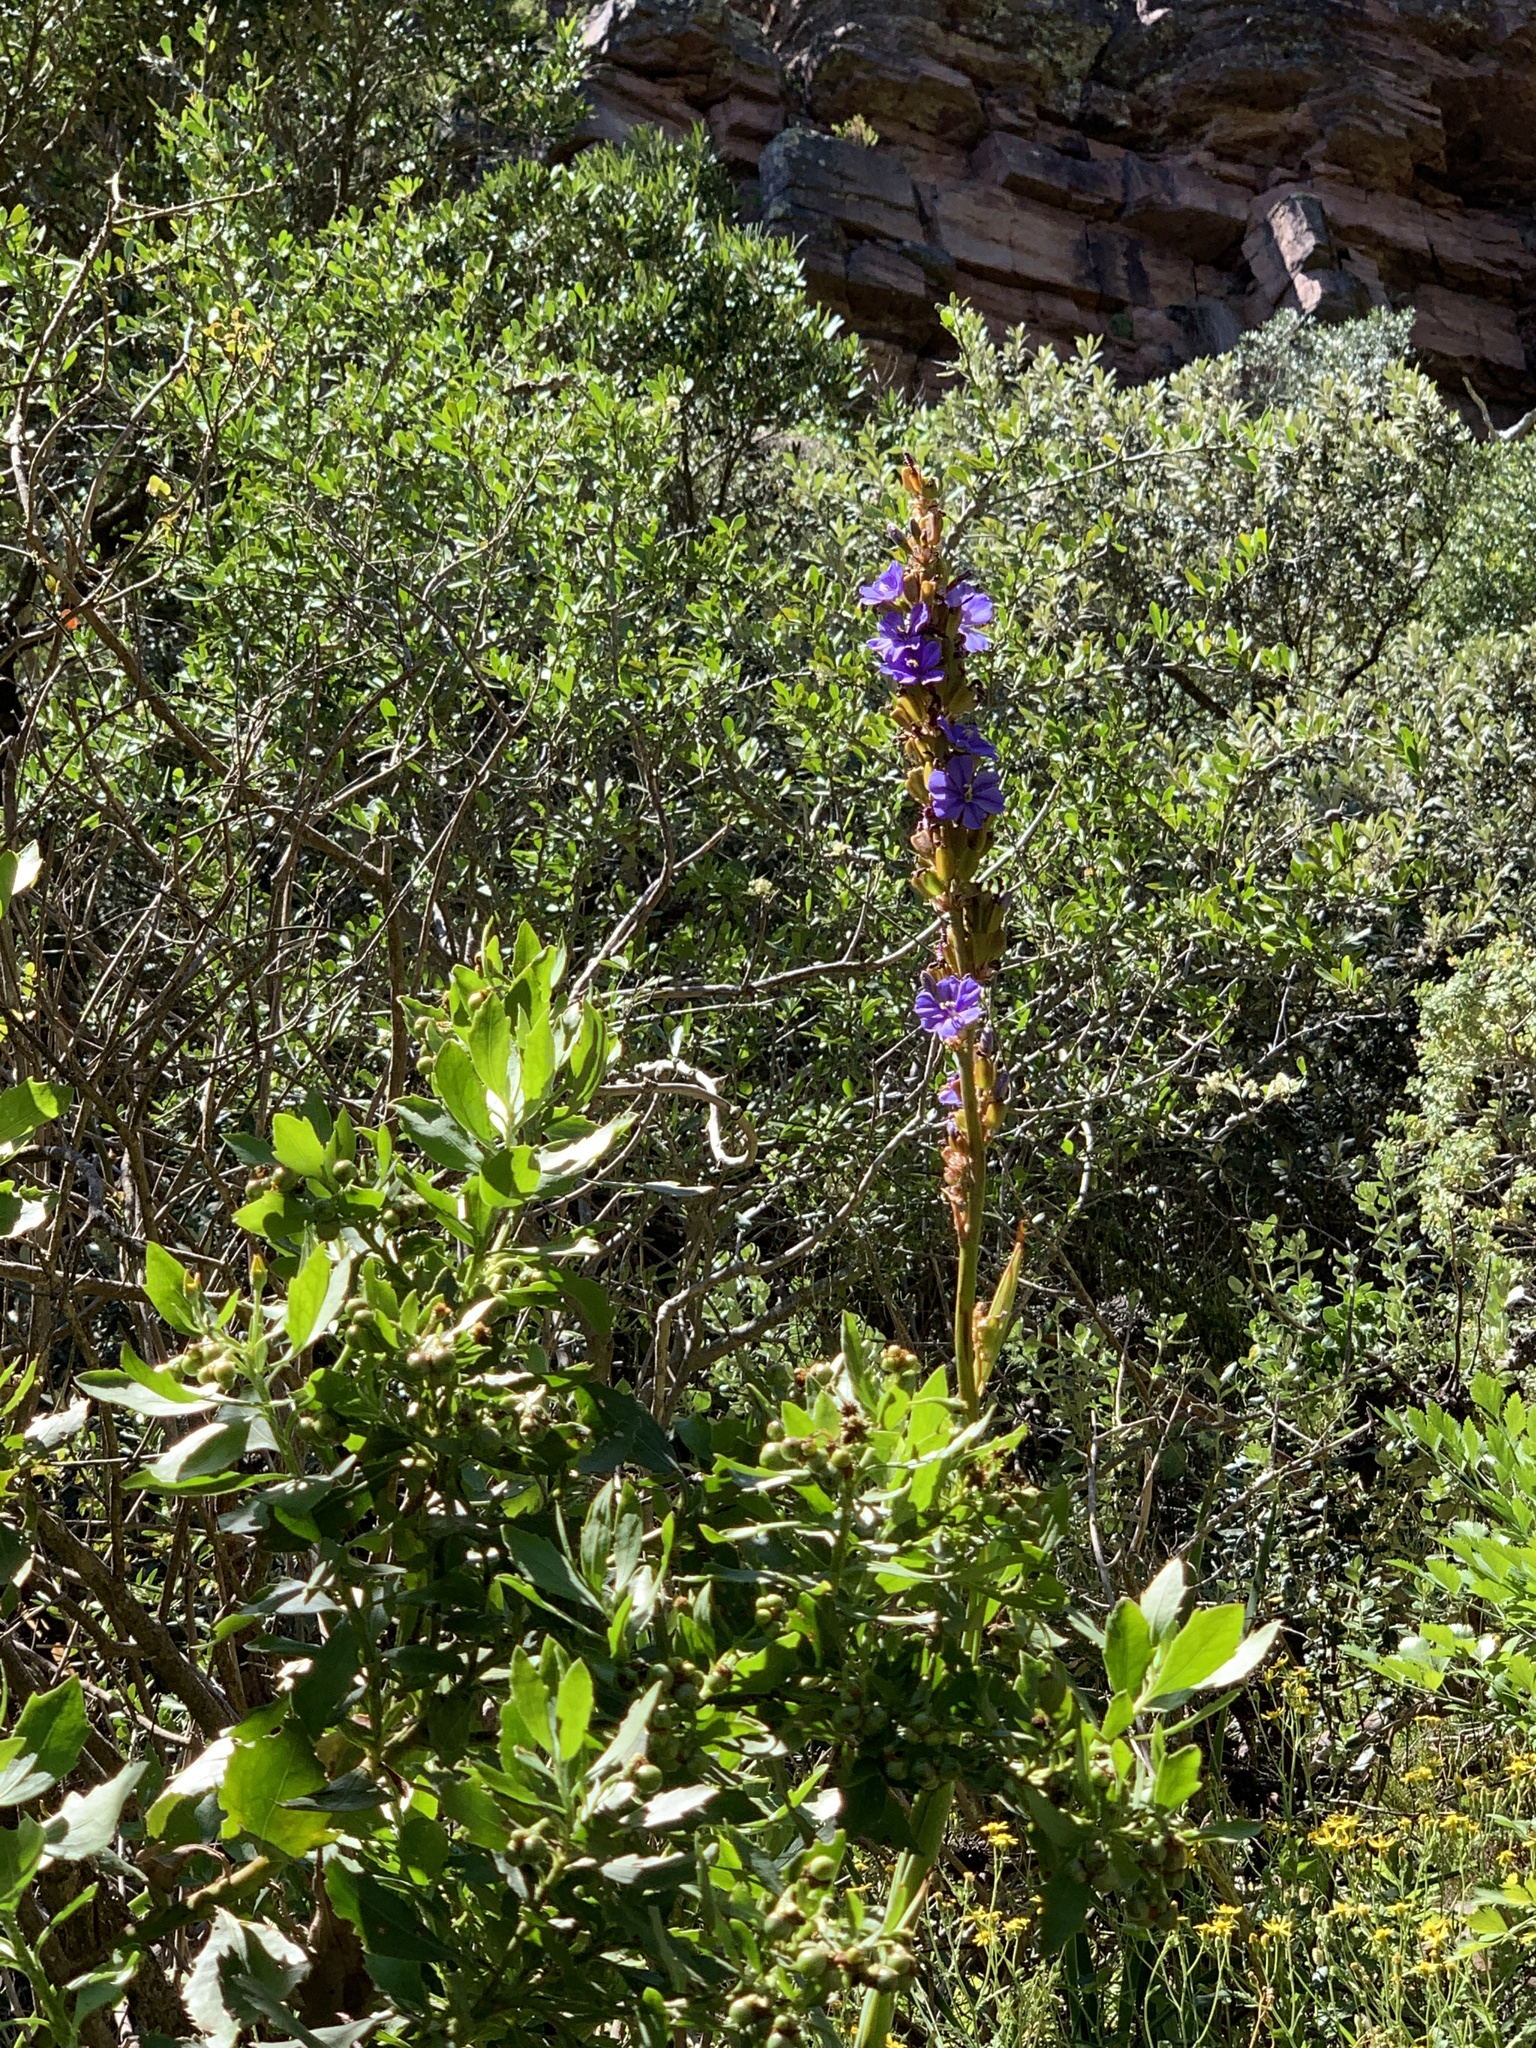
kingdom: Plantae
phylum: Tracheophyta
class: Liliopsida
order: Asparagales
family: Iridaceae
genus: Aristea
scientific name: Aristea capitata
